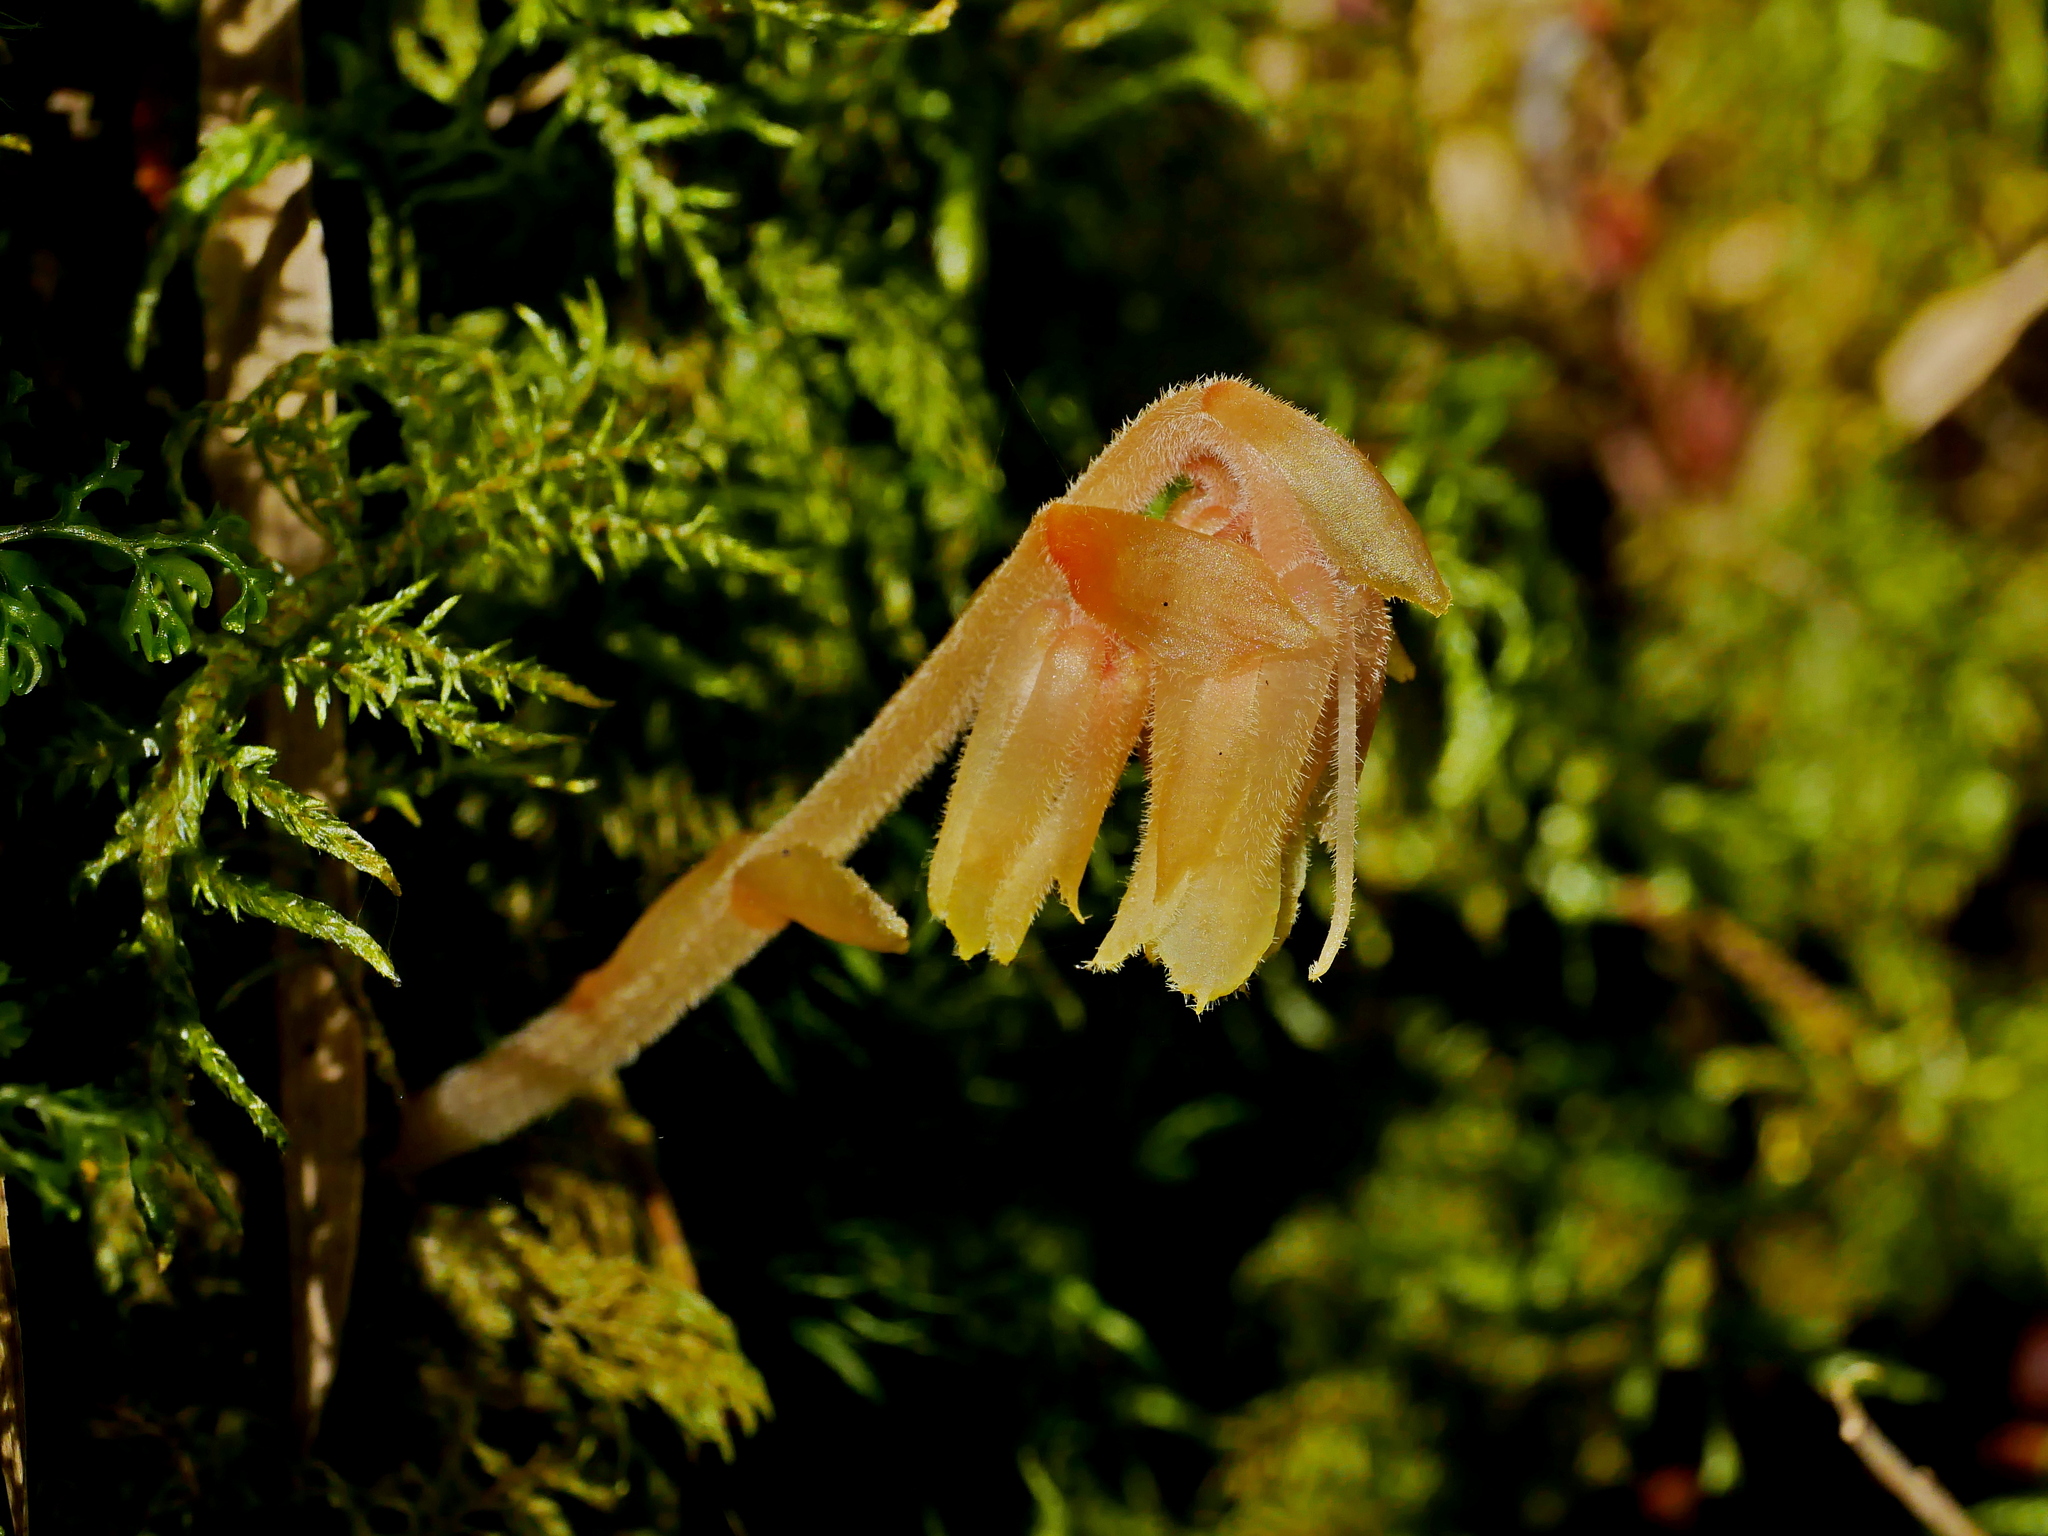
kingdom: Plantae
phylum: Tracheophyta
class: Magnoliopsida
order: Ericales
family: Ericaceae
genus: Hypopitys
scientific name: Hypopitys monotropa
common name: Yellow bird's-nest
